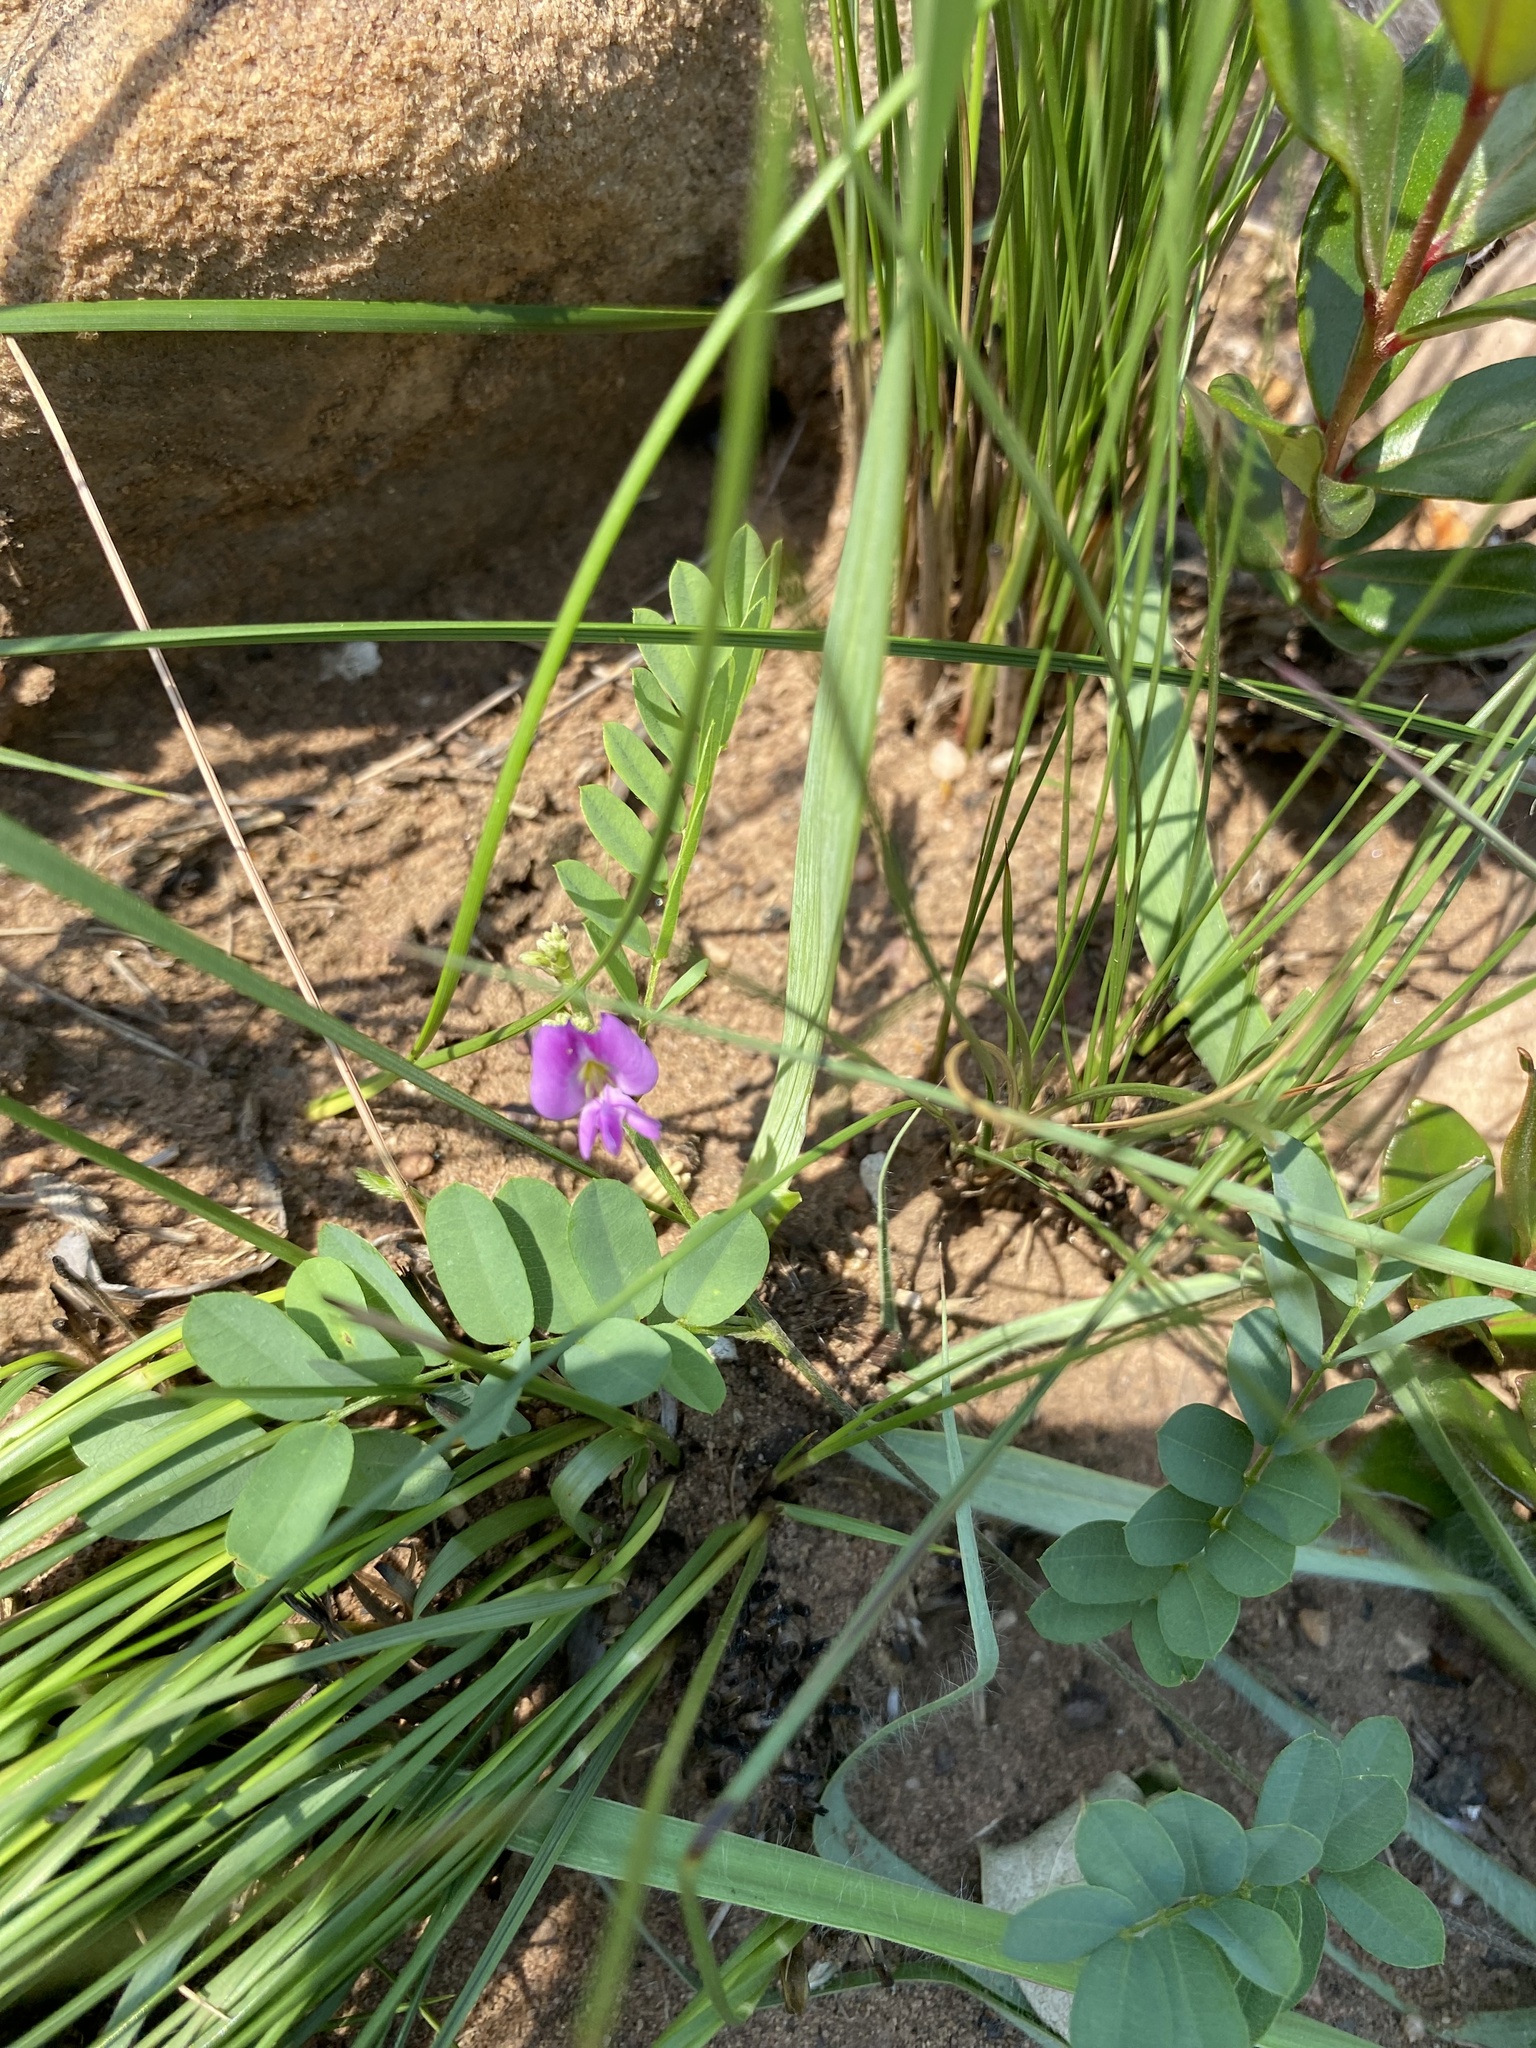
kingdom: Plantae
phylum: Tracheophyta
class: Magnoliopsida
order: Fabales
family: Fabaceae
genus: Abrus
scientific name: Abrus laevigatus
